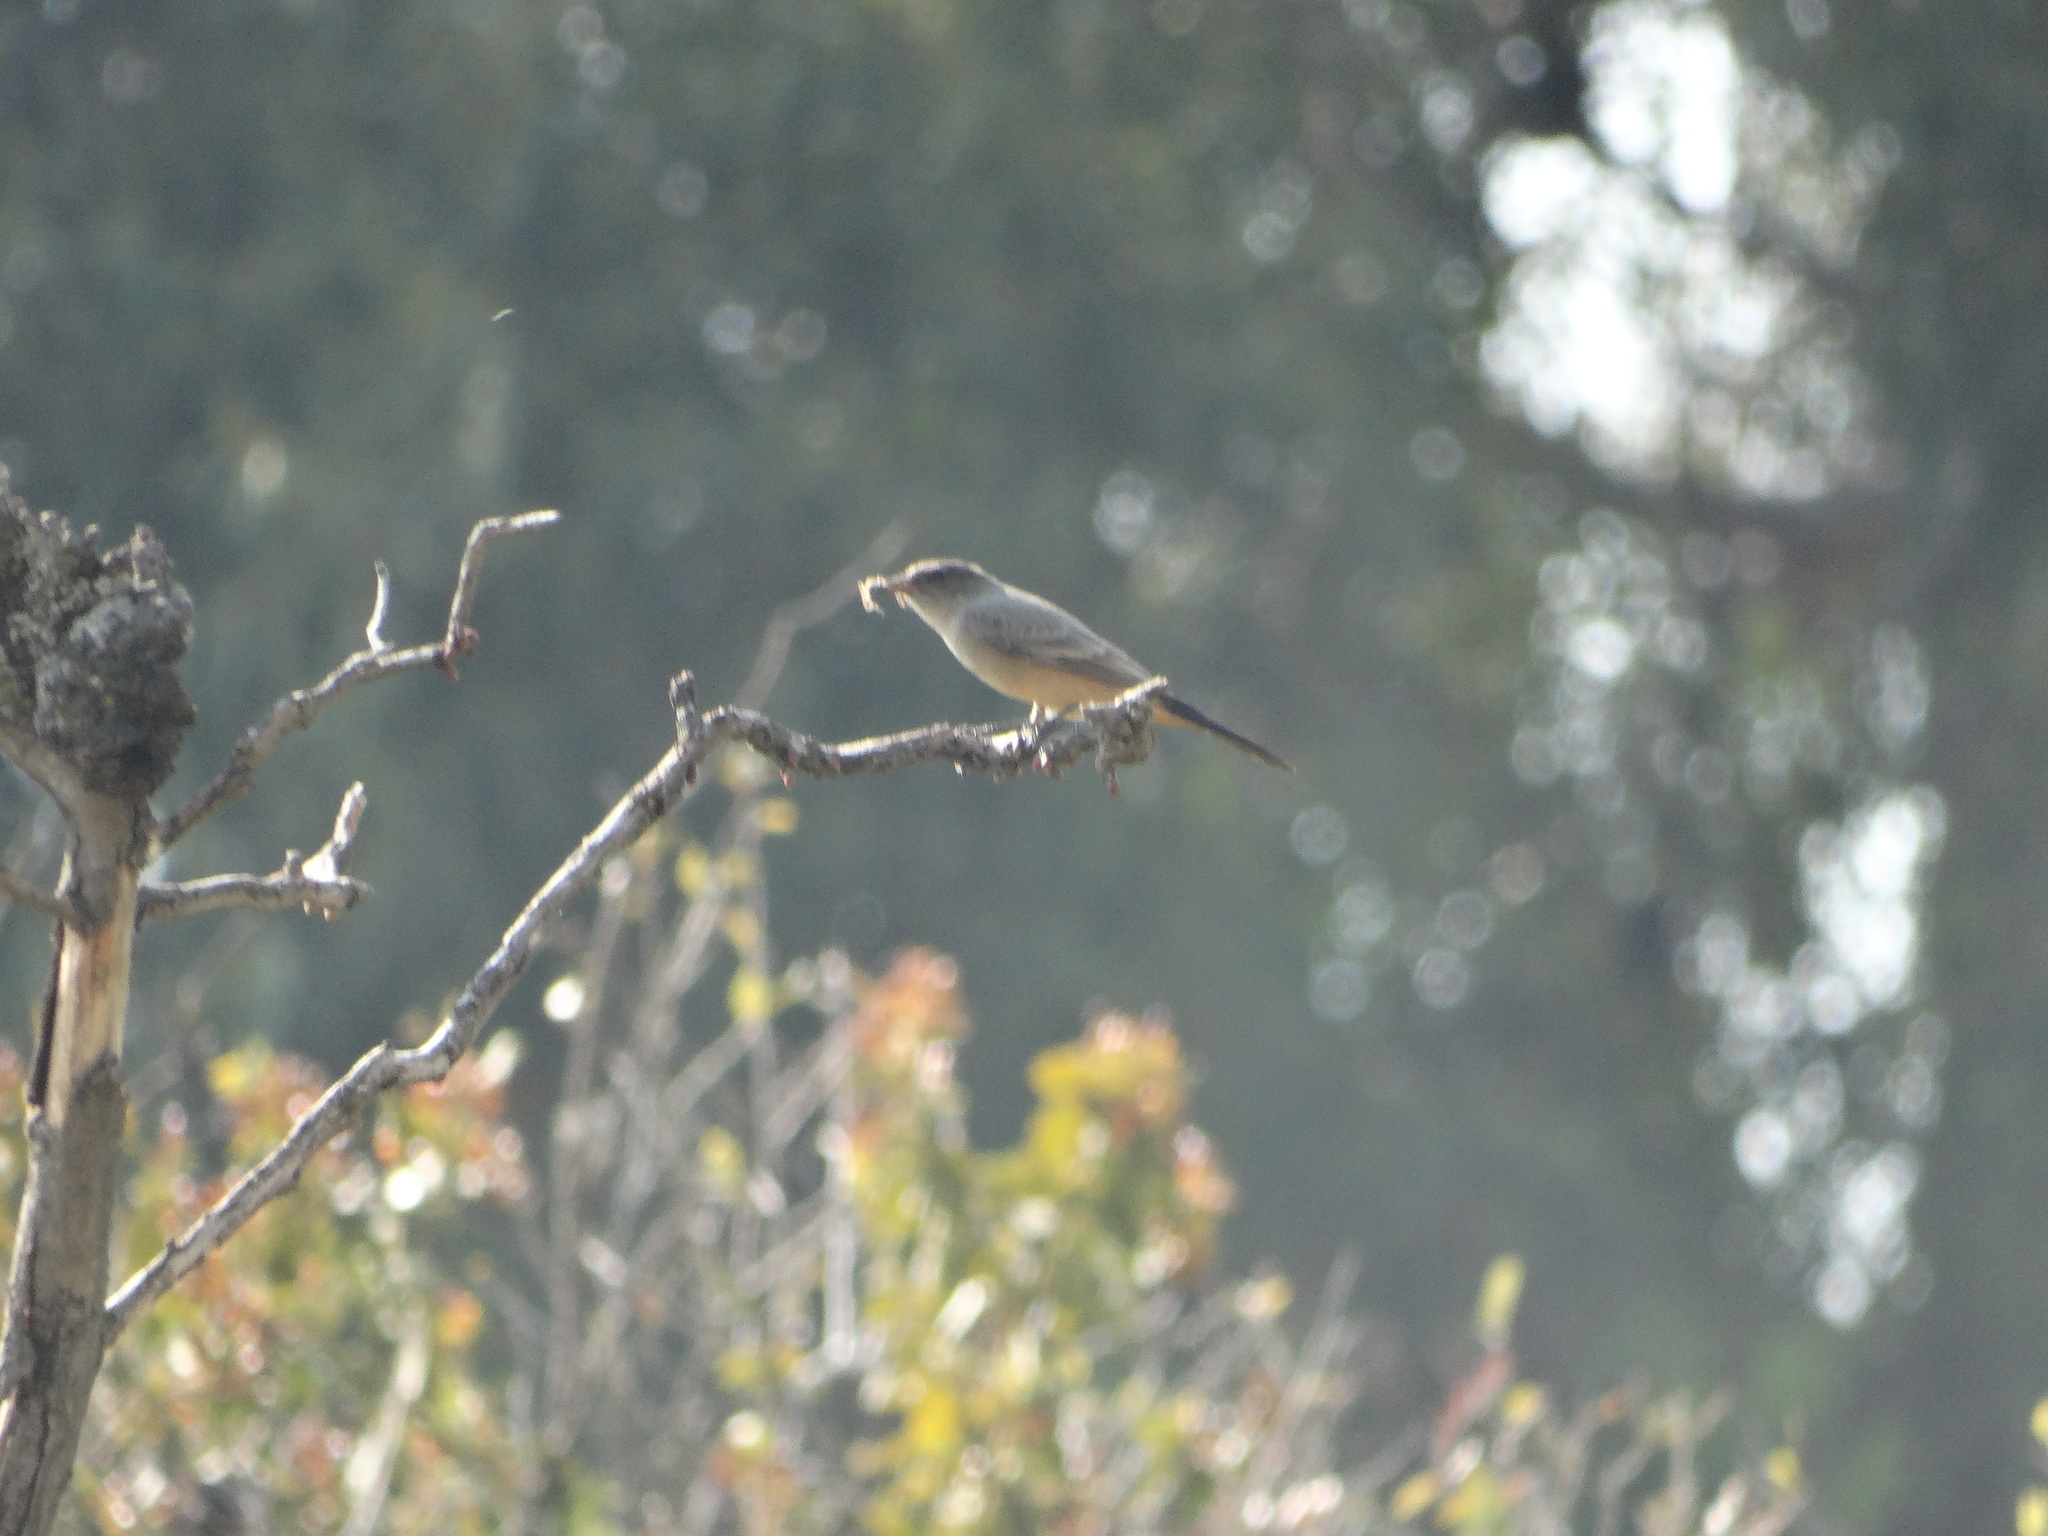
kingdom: Animalia
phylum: Chordata
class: Aves
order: Passeriformes
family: Tyrannidae
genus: Sayornis
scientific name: Sayornis saya
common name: Say's phoebe
